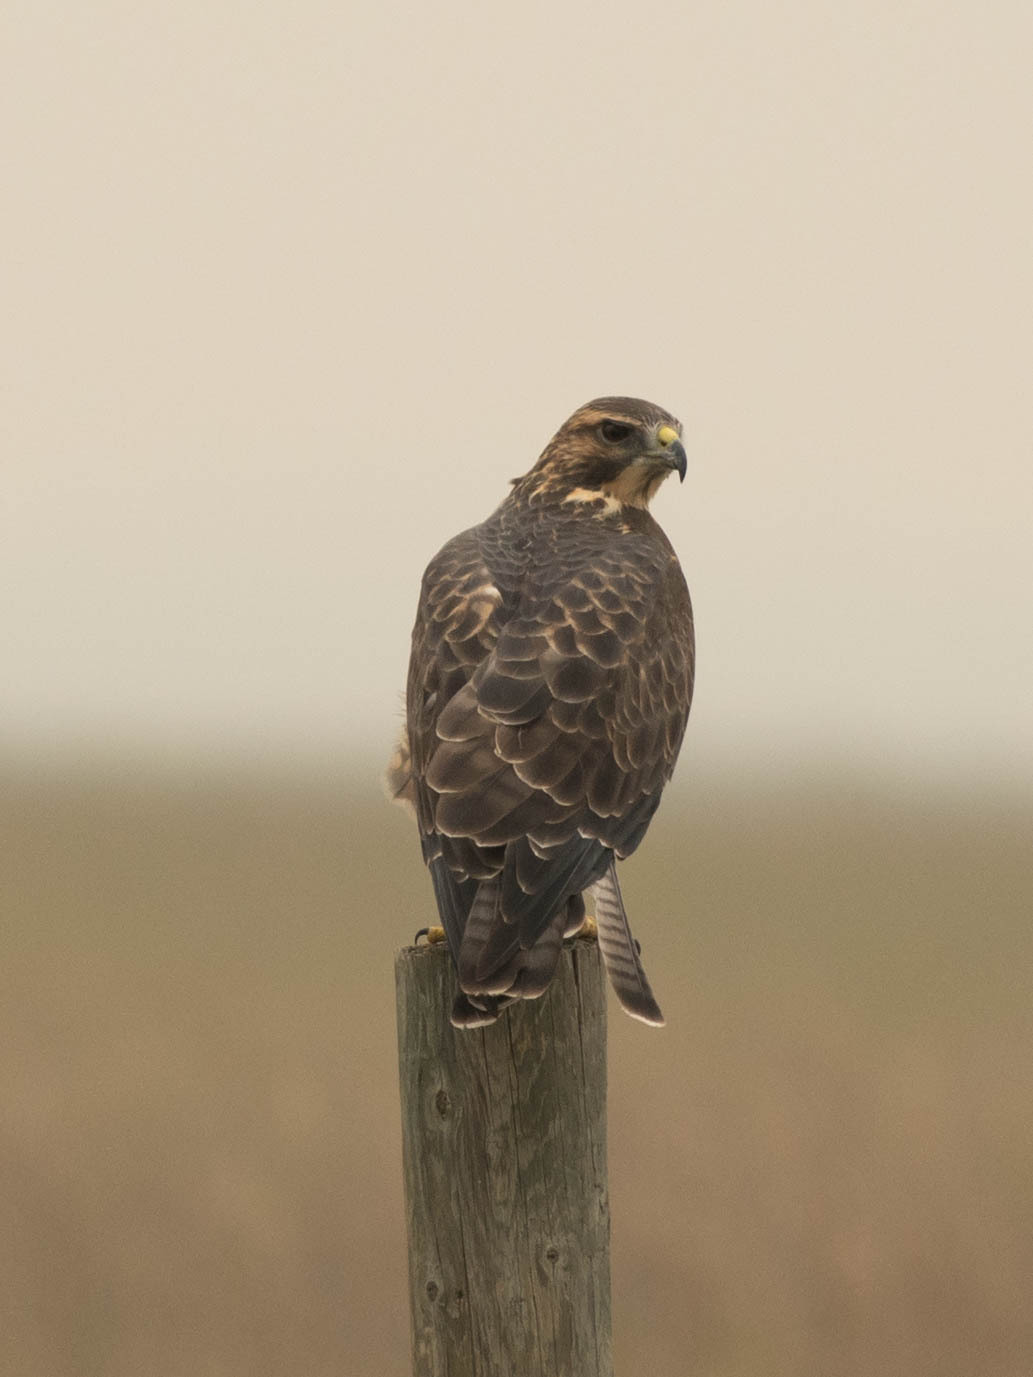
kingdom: Animalia
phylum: Chordata
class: Aves
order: Accipitriformes
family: Accipitridae
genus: Buteo
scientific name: Buteo swainsoni
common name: Swainson's hawk
